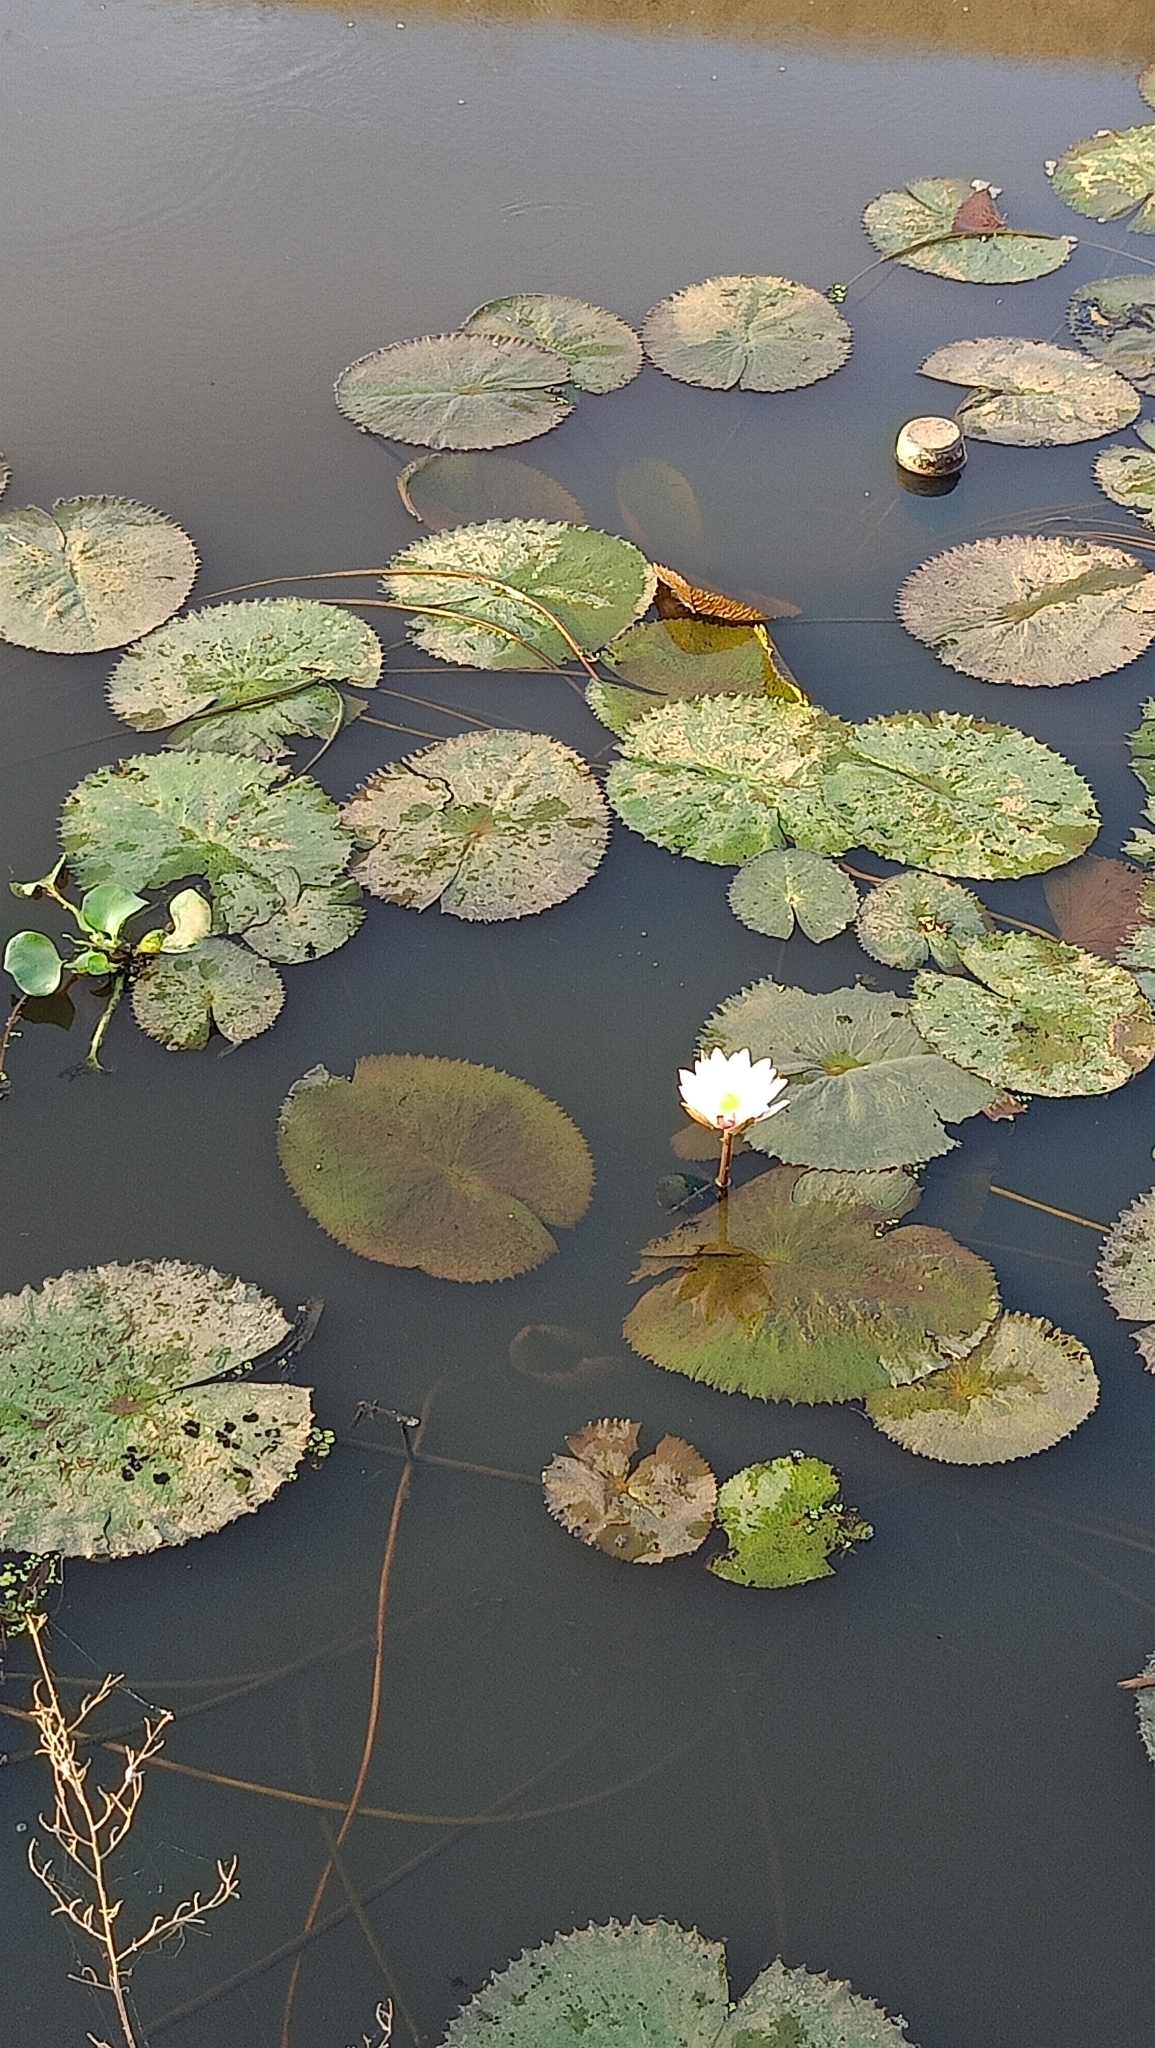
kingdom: Plantae
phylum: Tracheophyta
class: Magnoliopsida
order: Nymphaeales
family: Nymphaeaceae
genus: Nymphaea
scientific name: Nymphaea alba
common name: White water-lily
